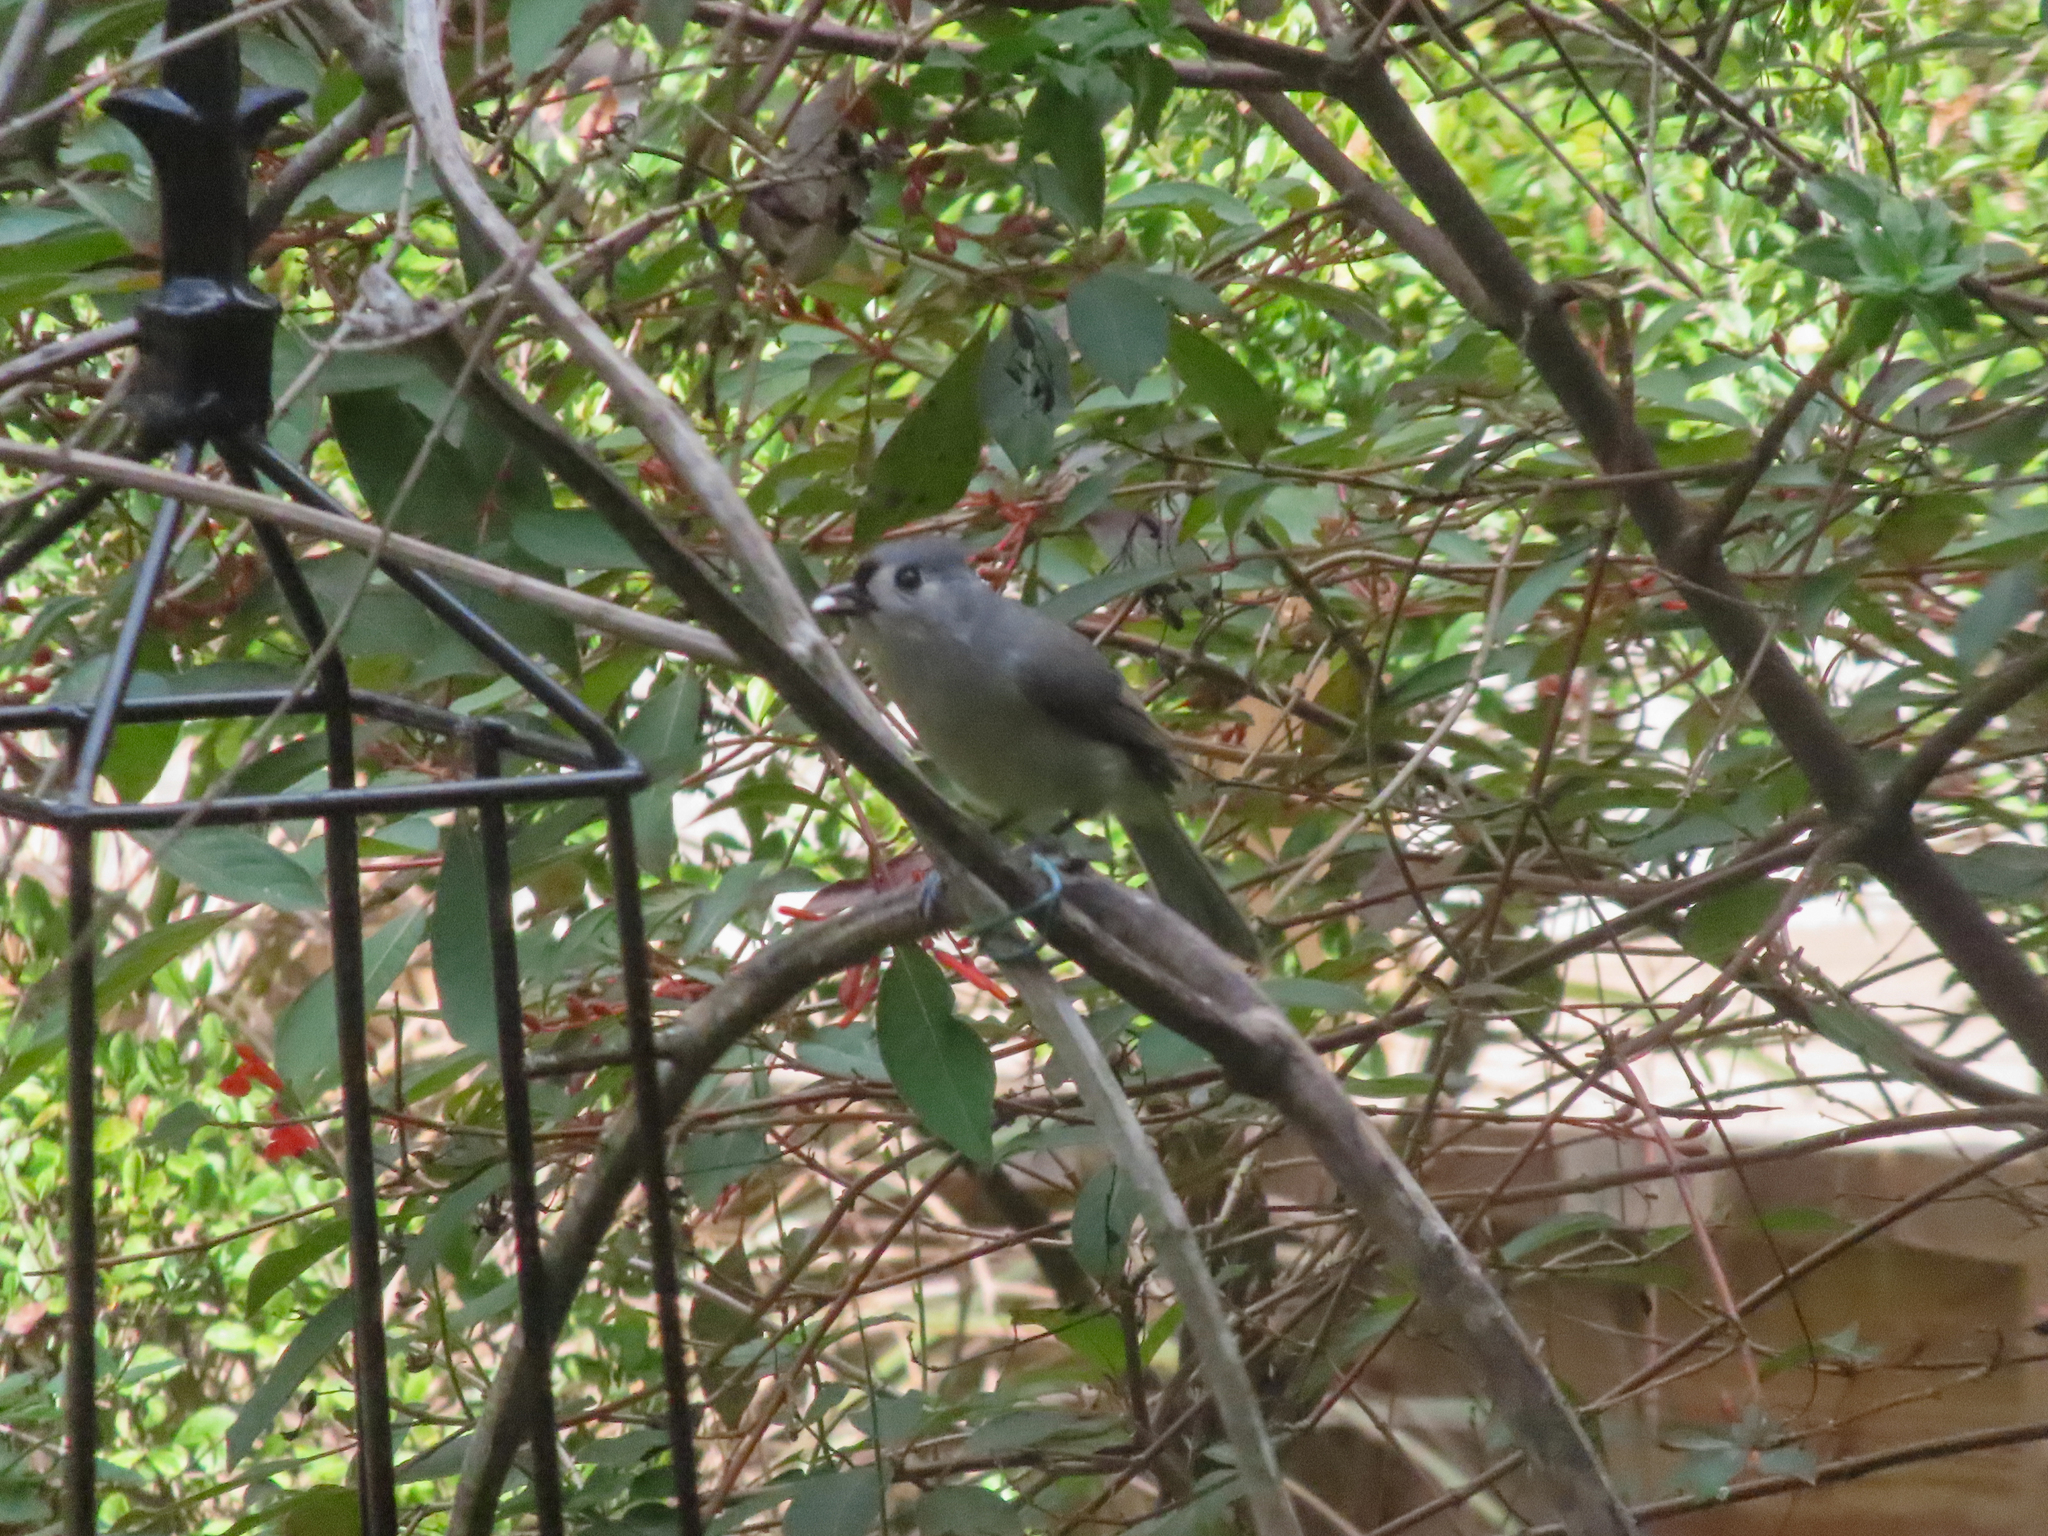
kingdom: Animalia
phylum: Chordata
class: Aves
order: Passeriformes
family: Paridae
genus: Baeolophus
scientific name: Baeolophus bicolor
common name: Tufted titmouse
